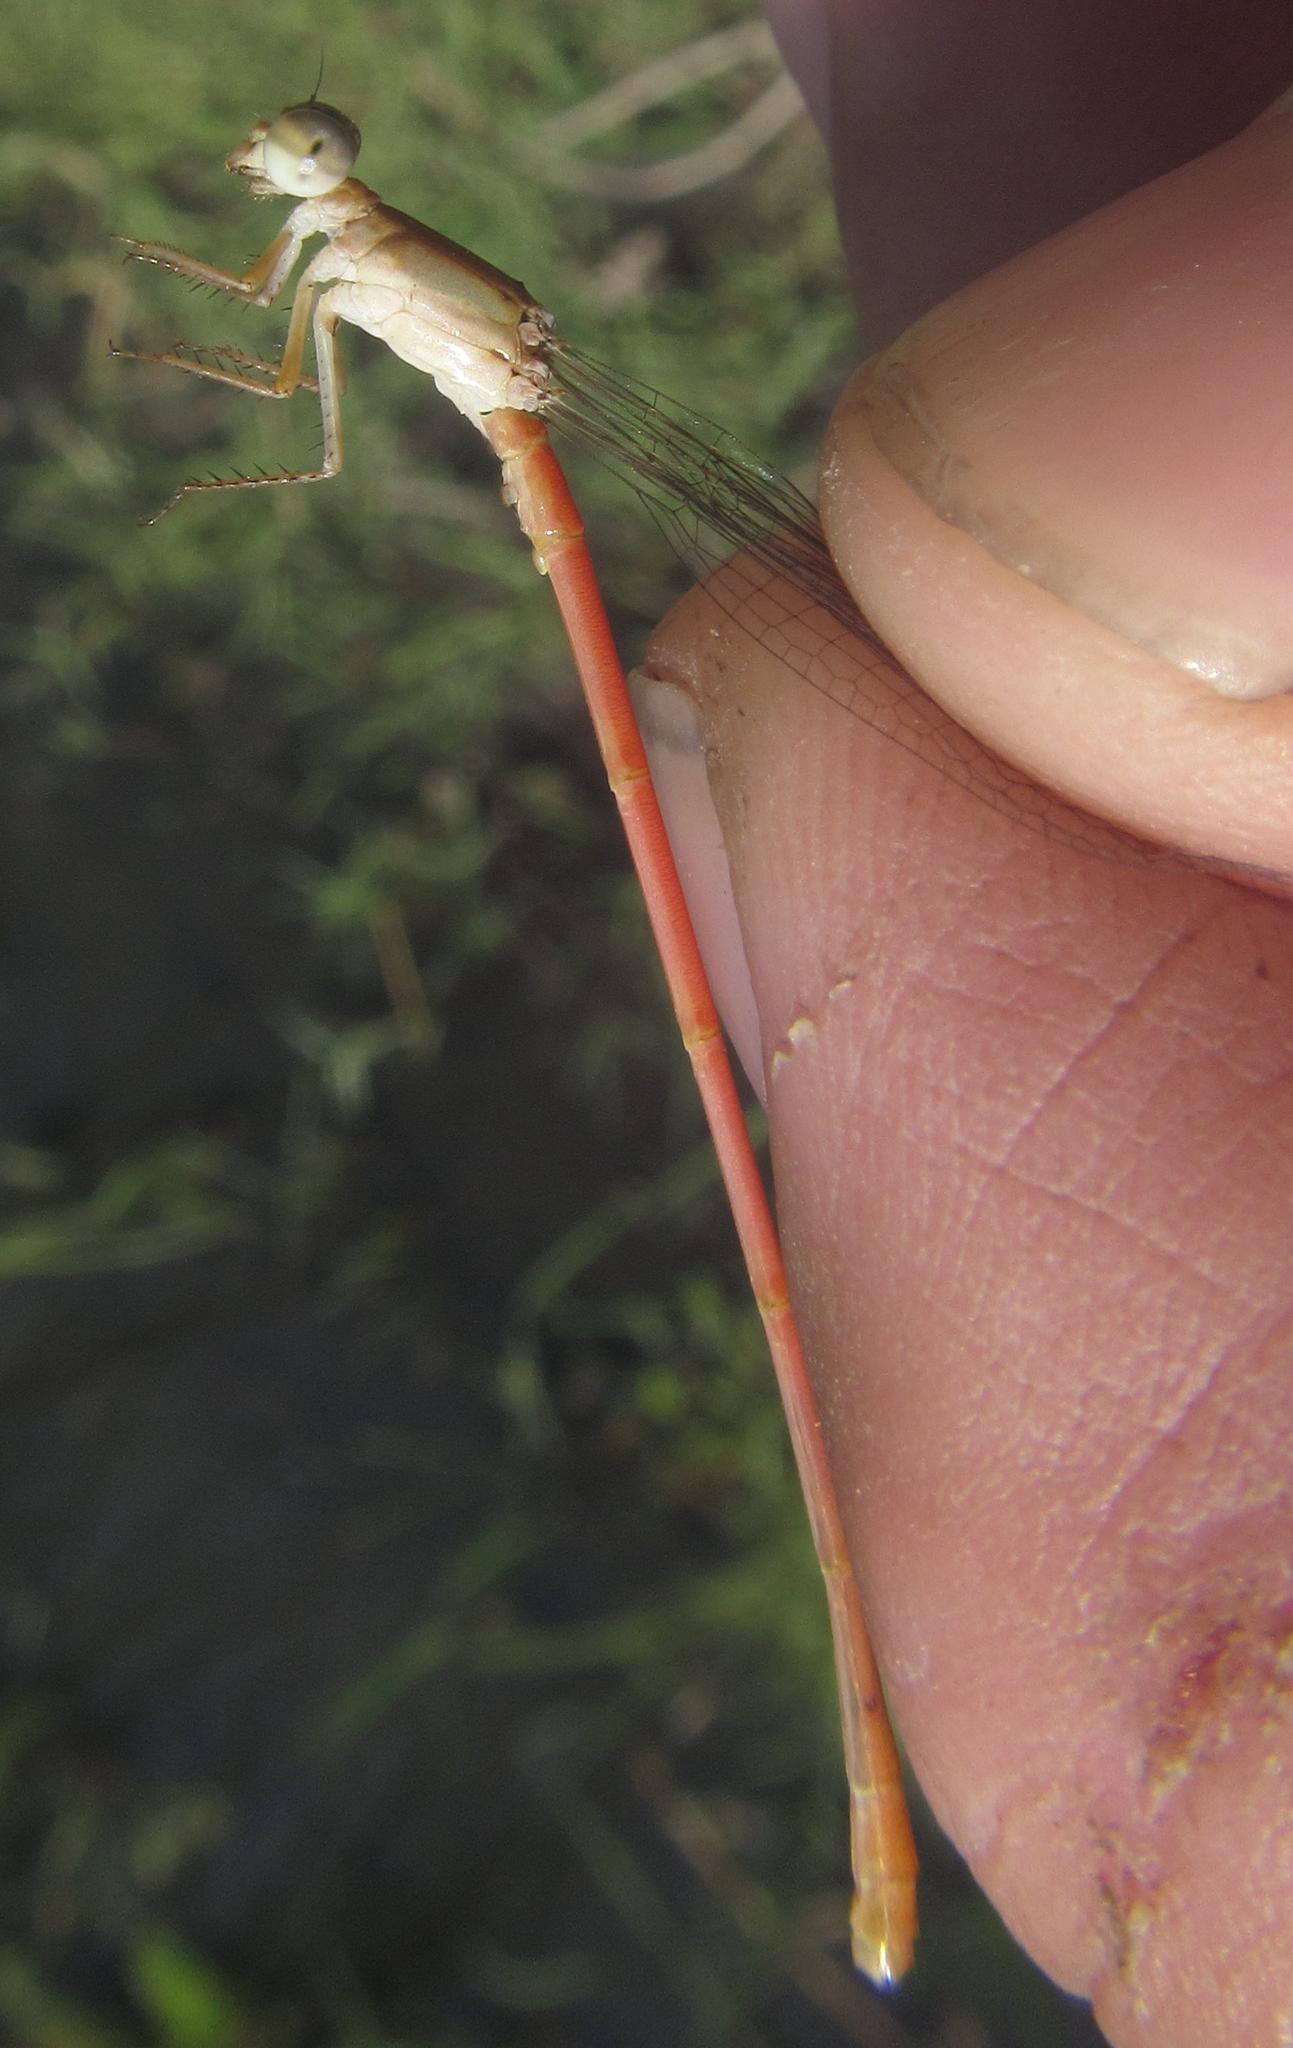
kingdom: Animalia
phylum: Arthropoda
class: Insecta
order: Odonata
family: Coenagrionidae
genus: Ceriagrion
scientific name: Ceriagrion glabrum
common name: Common pond damsel
